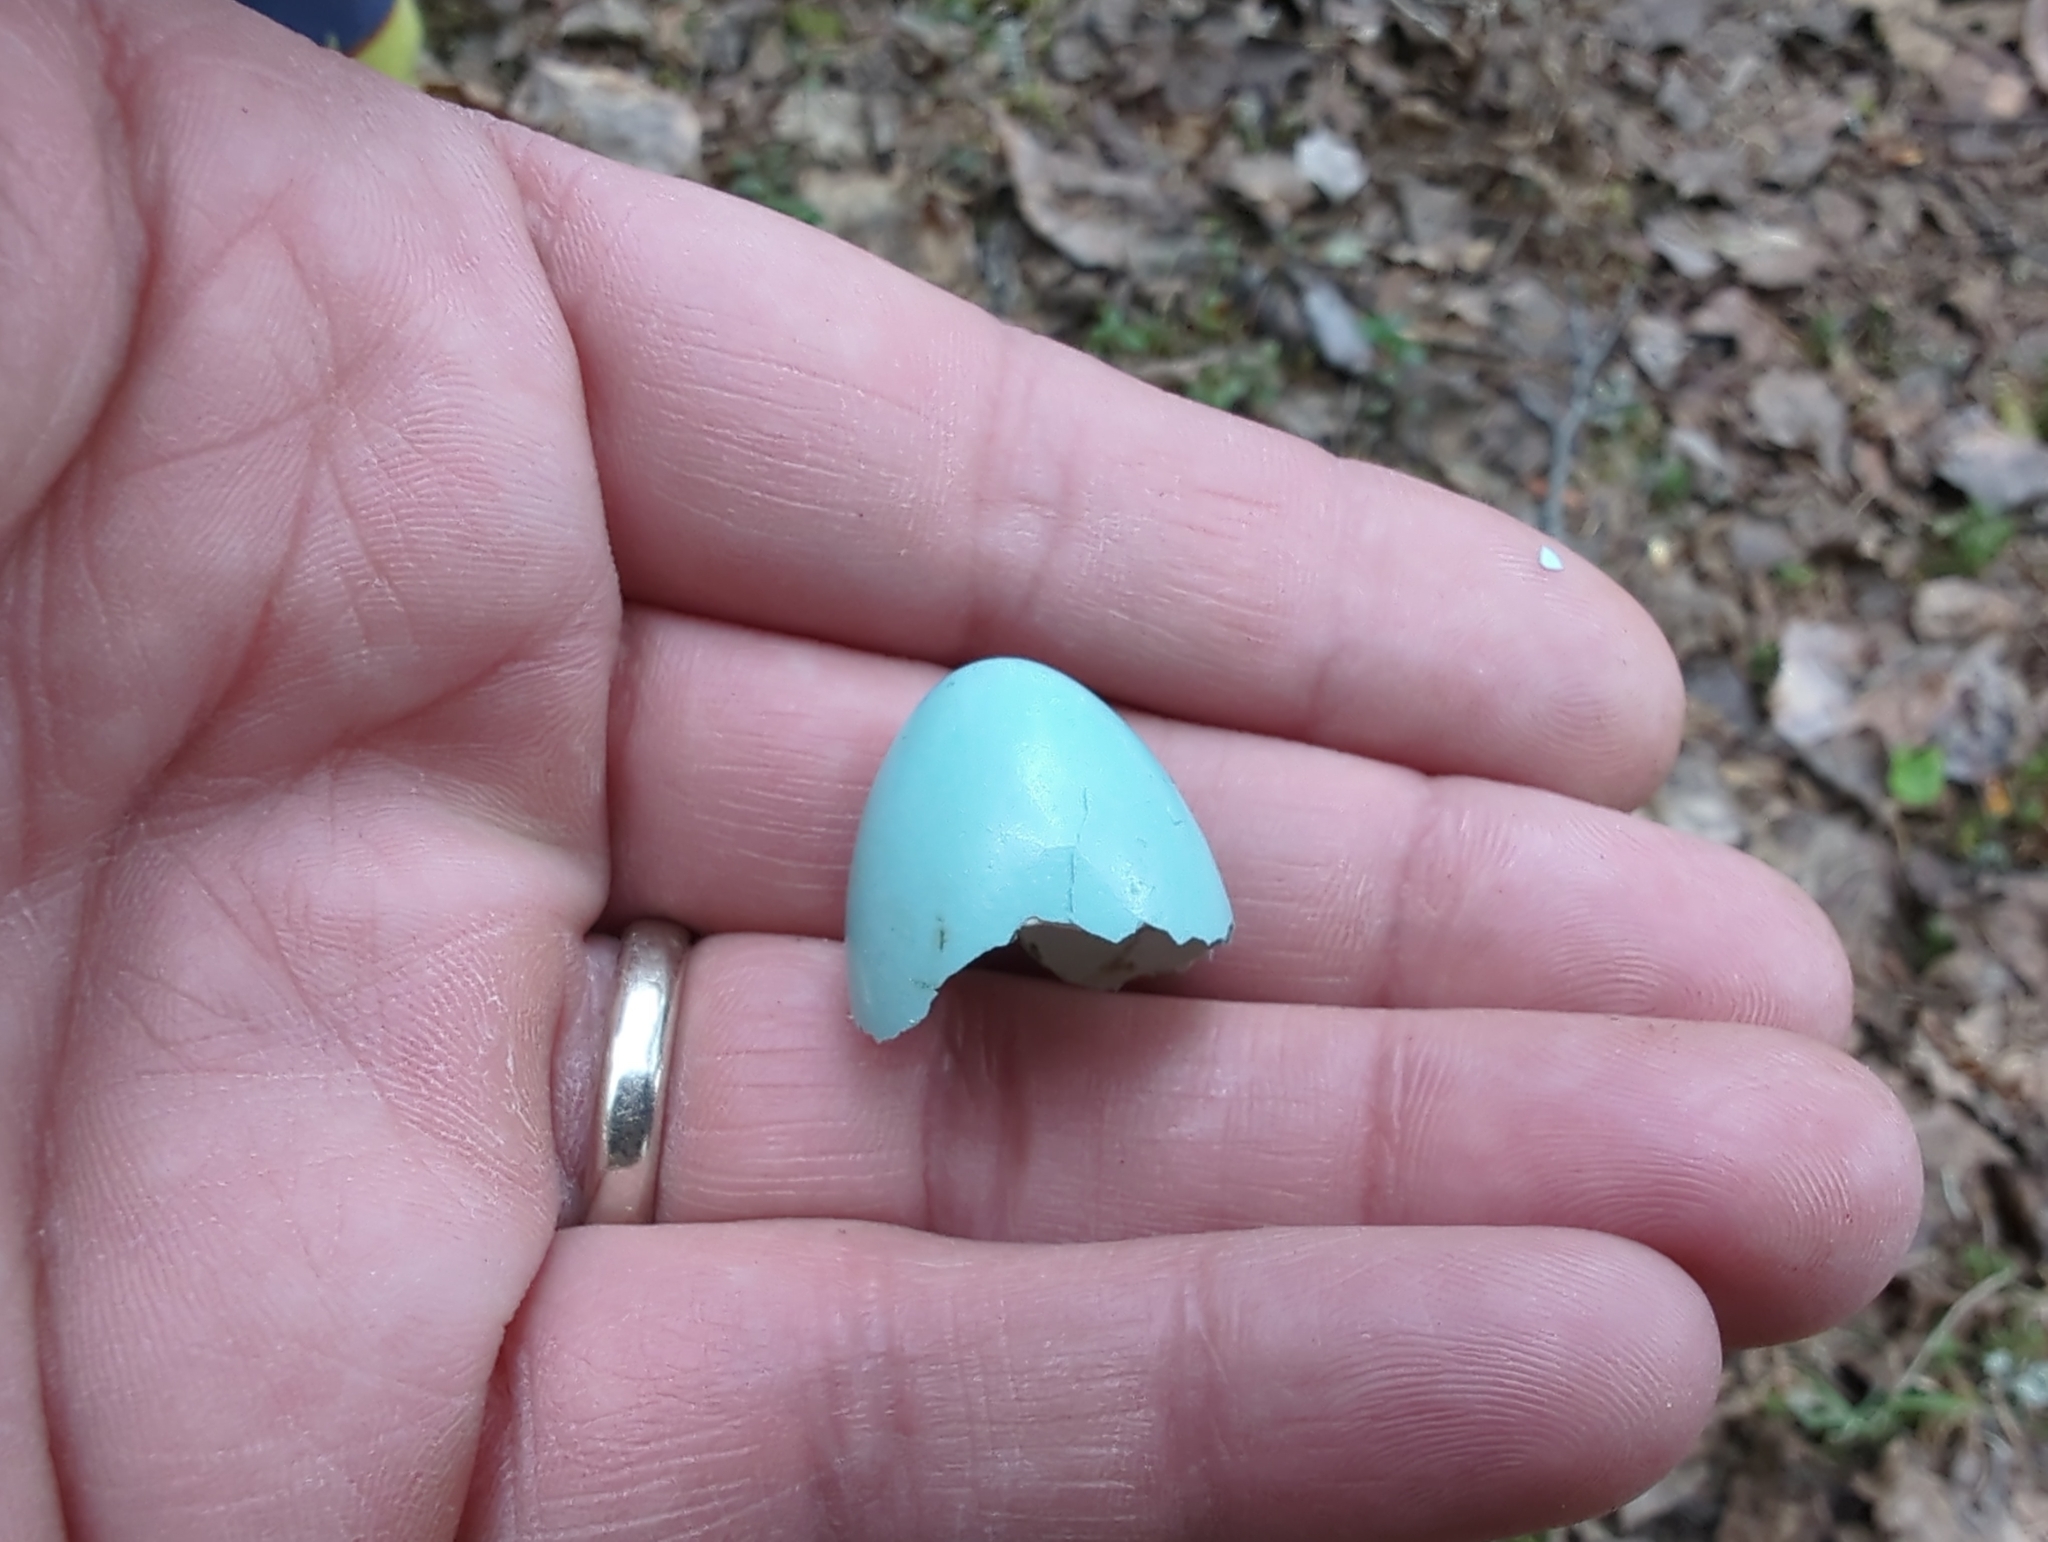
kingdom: Animalia
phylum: Chordata
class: Aves
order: Passeriformes
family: Turdidae
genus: Turdus
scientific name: Turdus migratorius
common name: American robin
